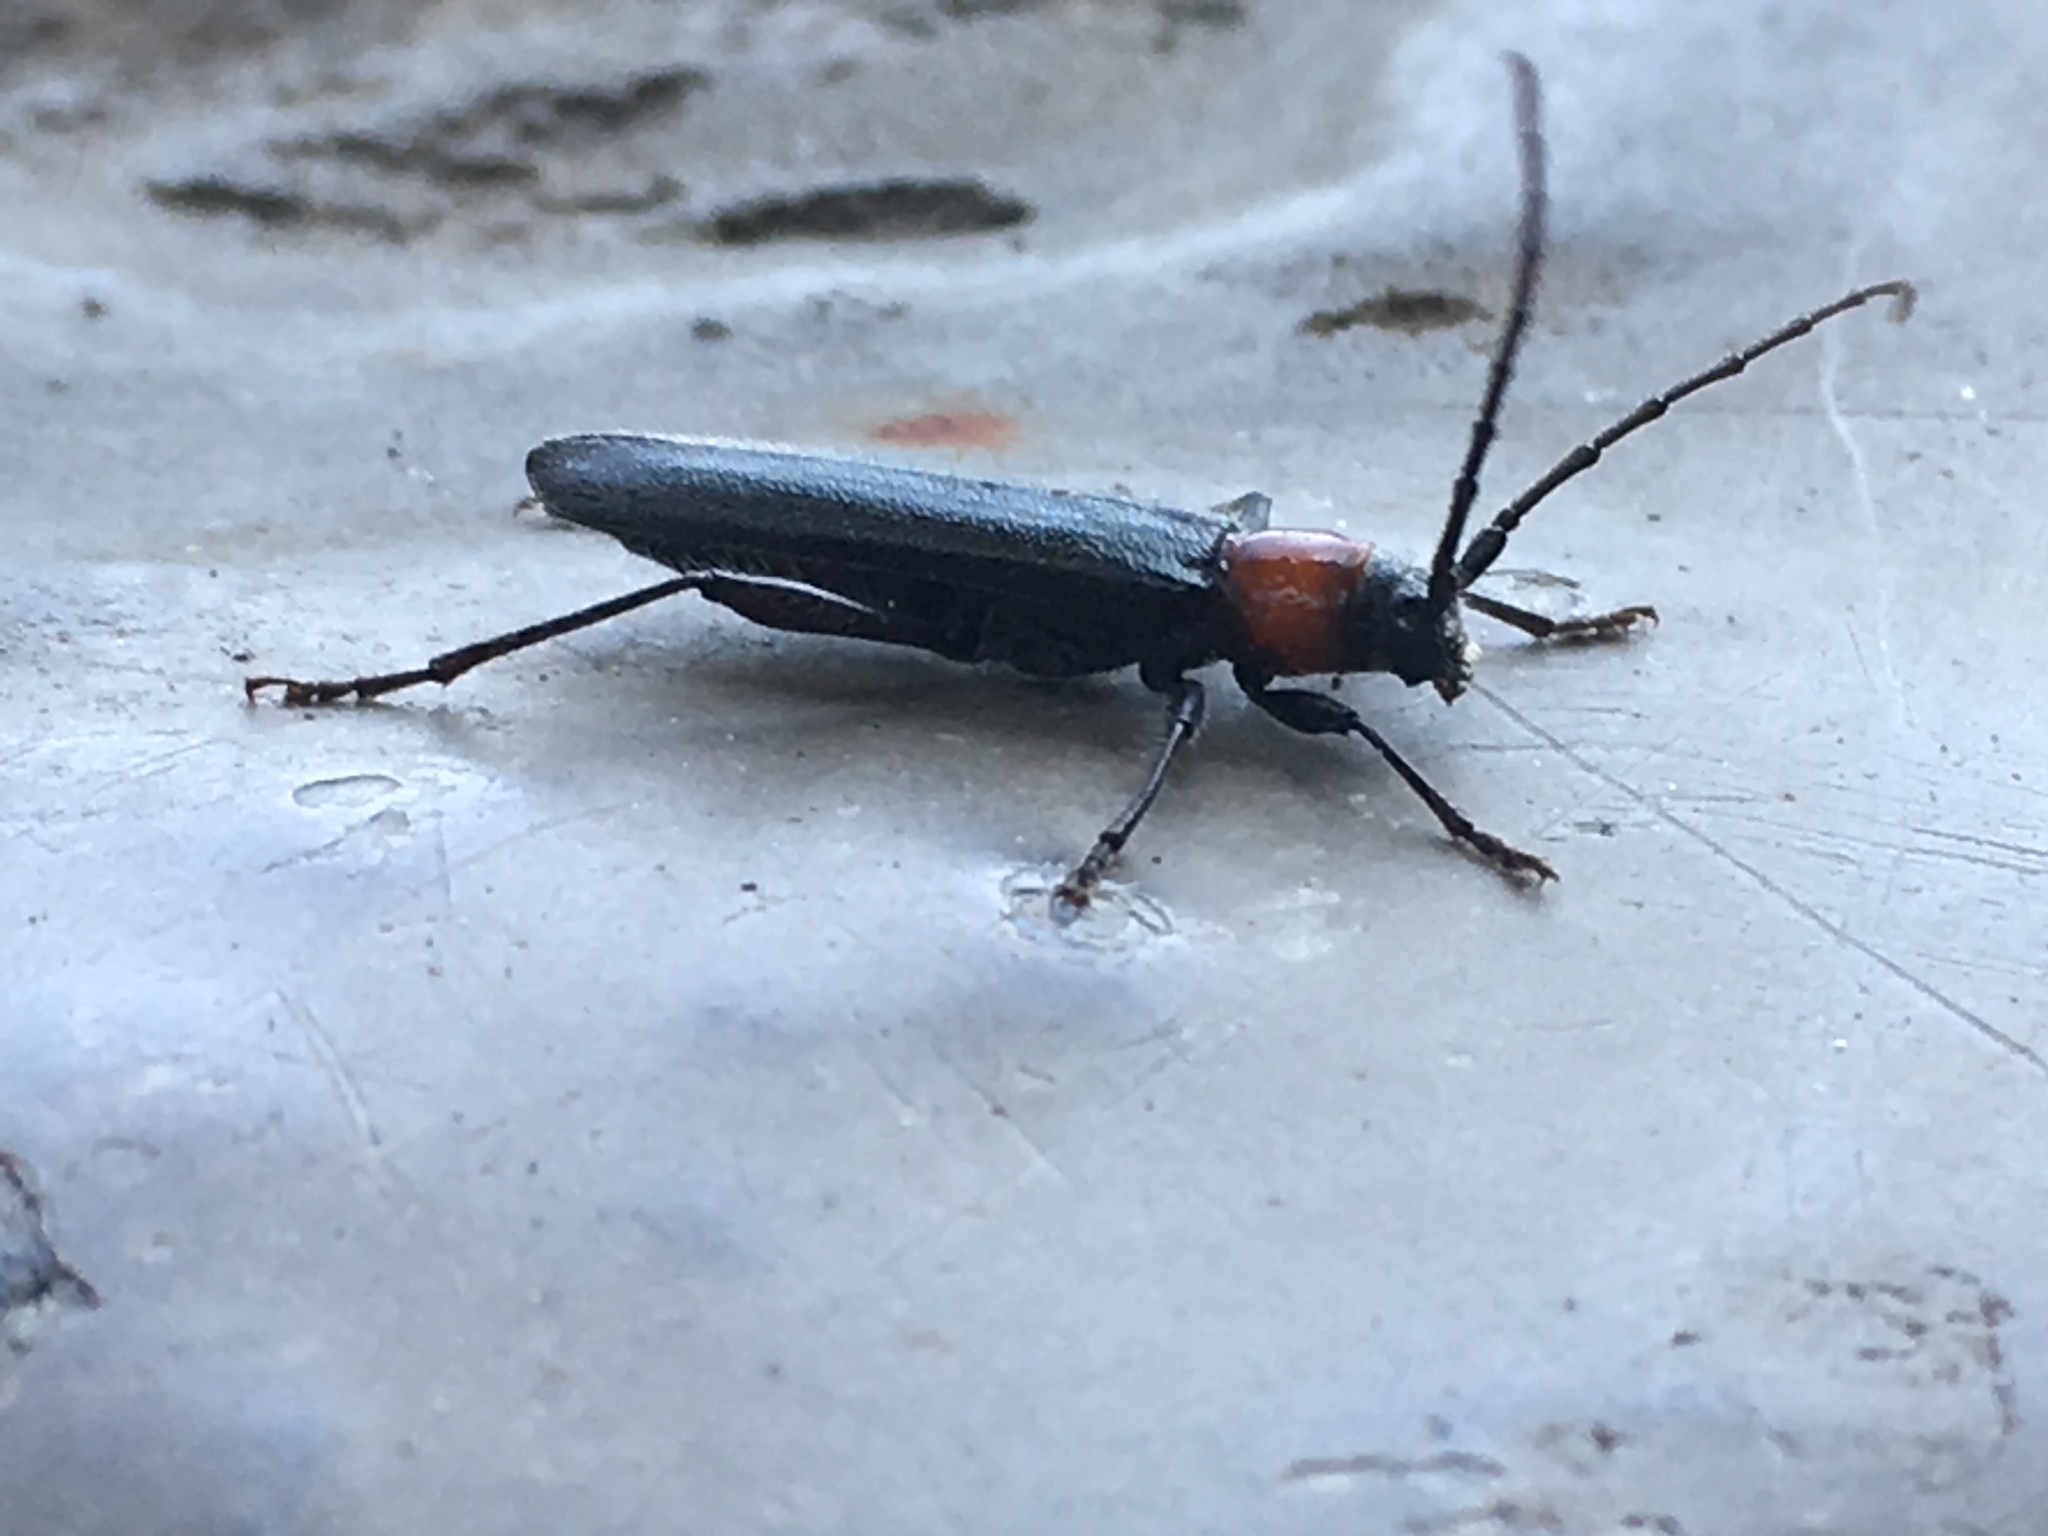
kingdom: Animalia
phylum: Arthropoda
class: Insecta
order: Coleoptera
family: Cerambycidae
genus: Pronocera
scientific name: Pronocera collaris
